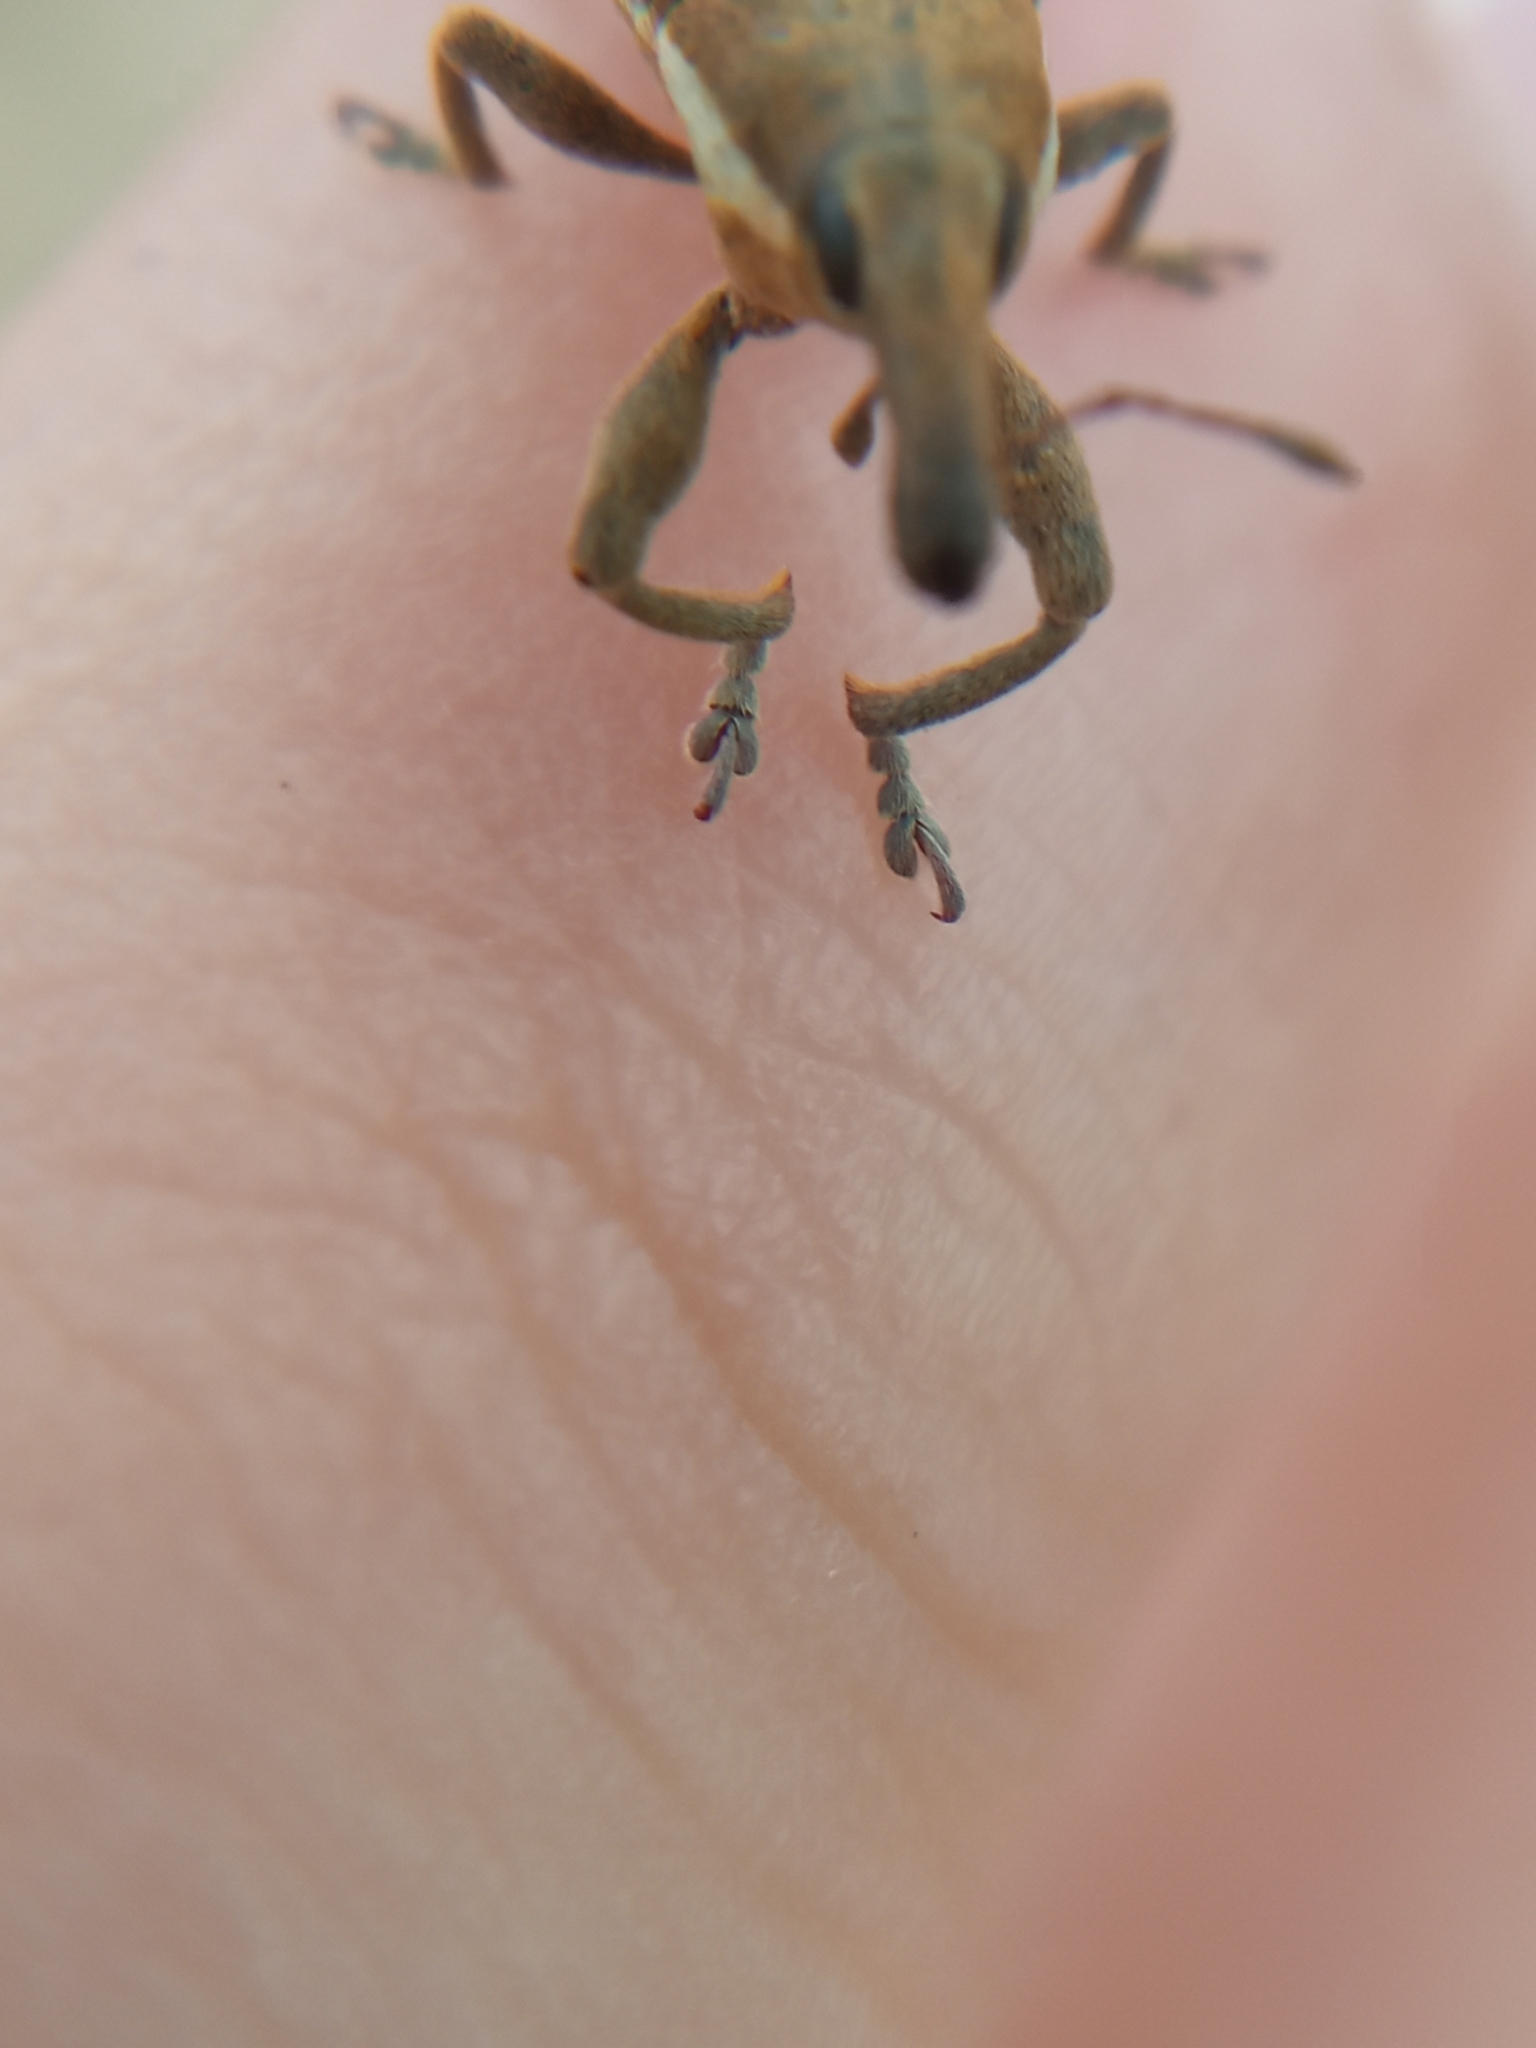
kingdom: Animalia
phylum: Arthropoda
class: Insecta
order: Coleoptera
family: Curculionidae
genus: Lixus
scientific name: Lixus ochraceus
